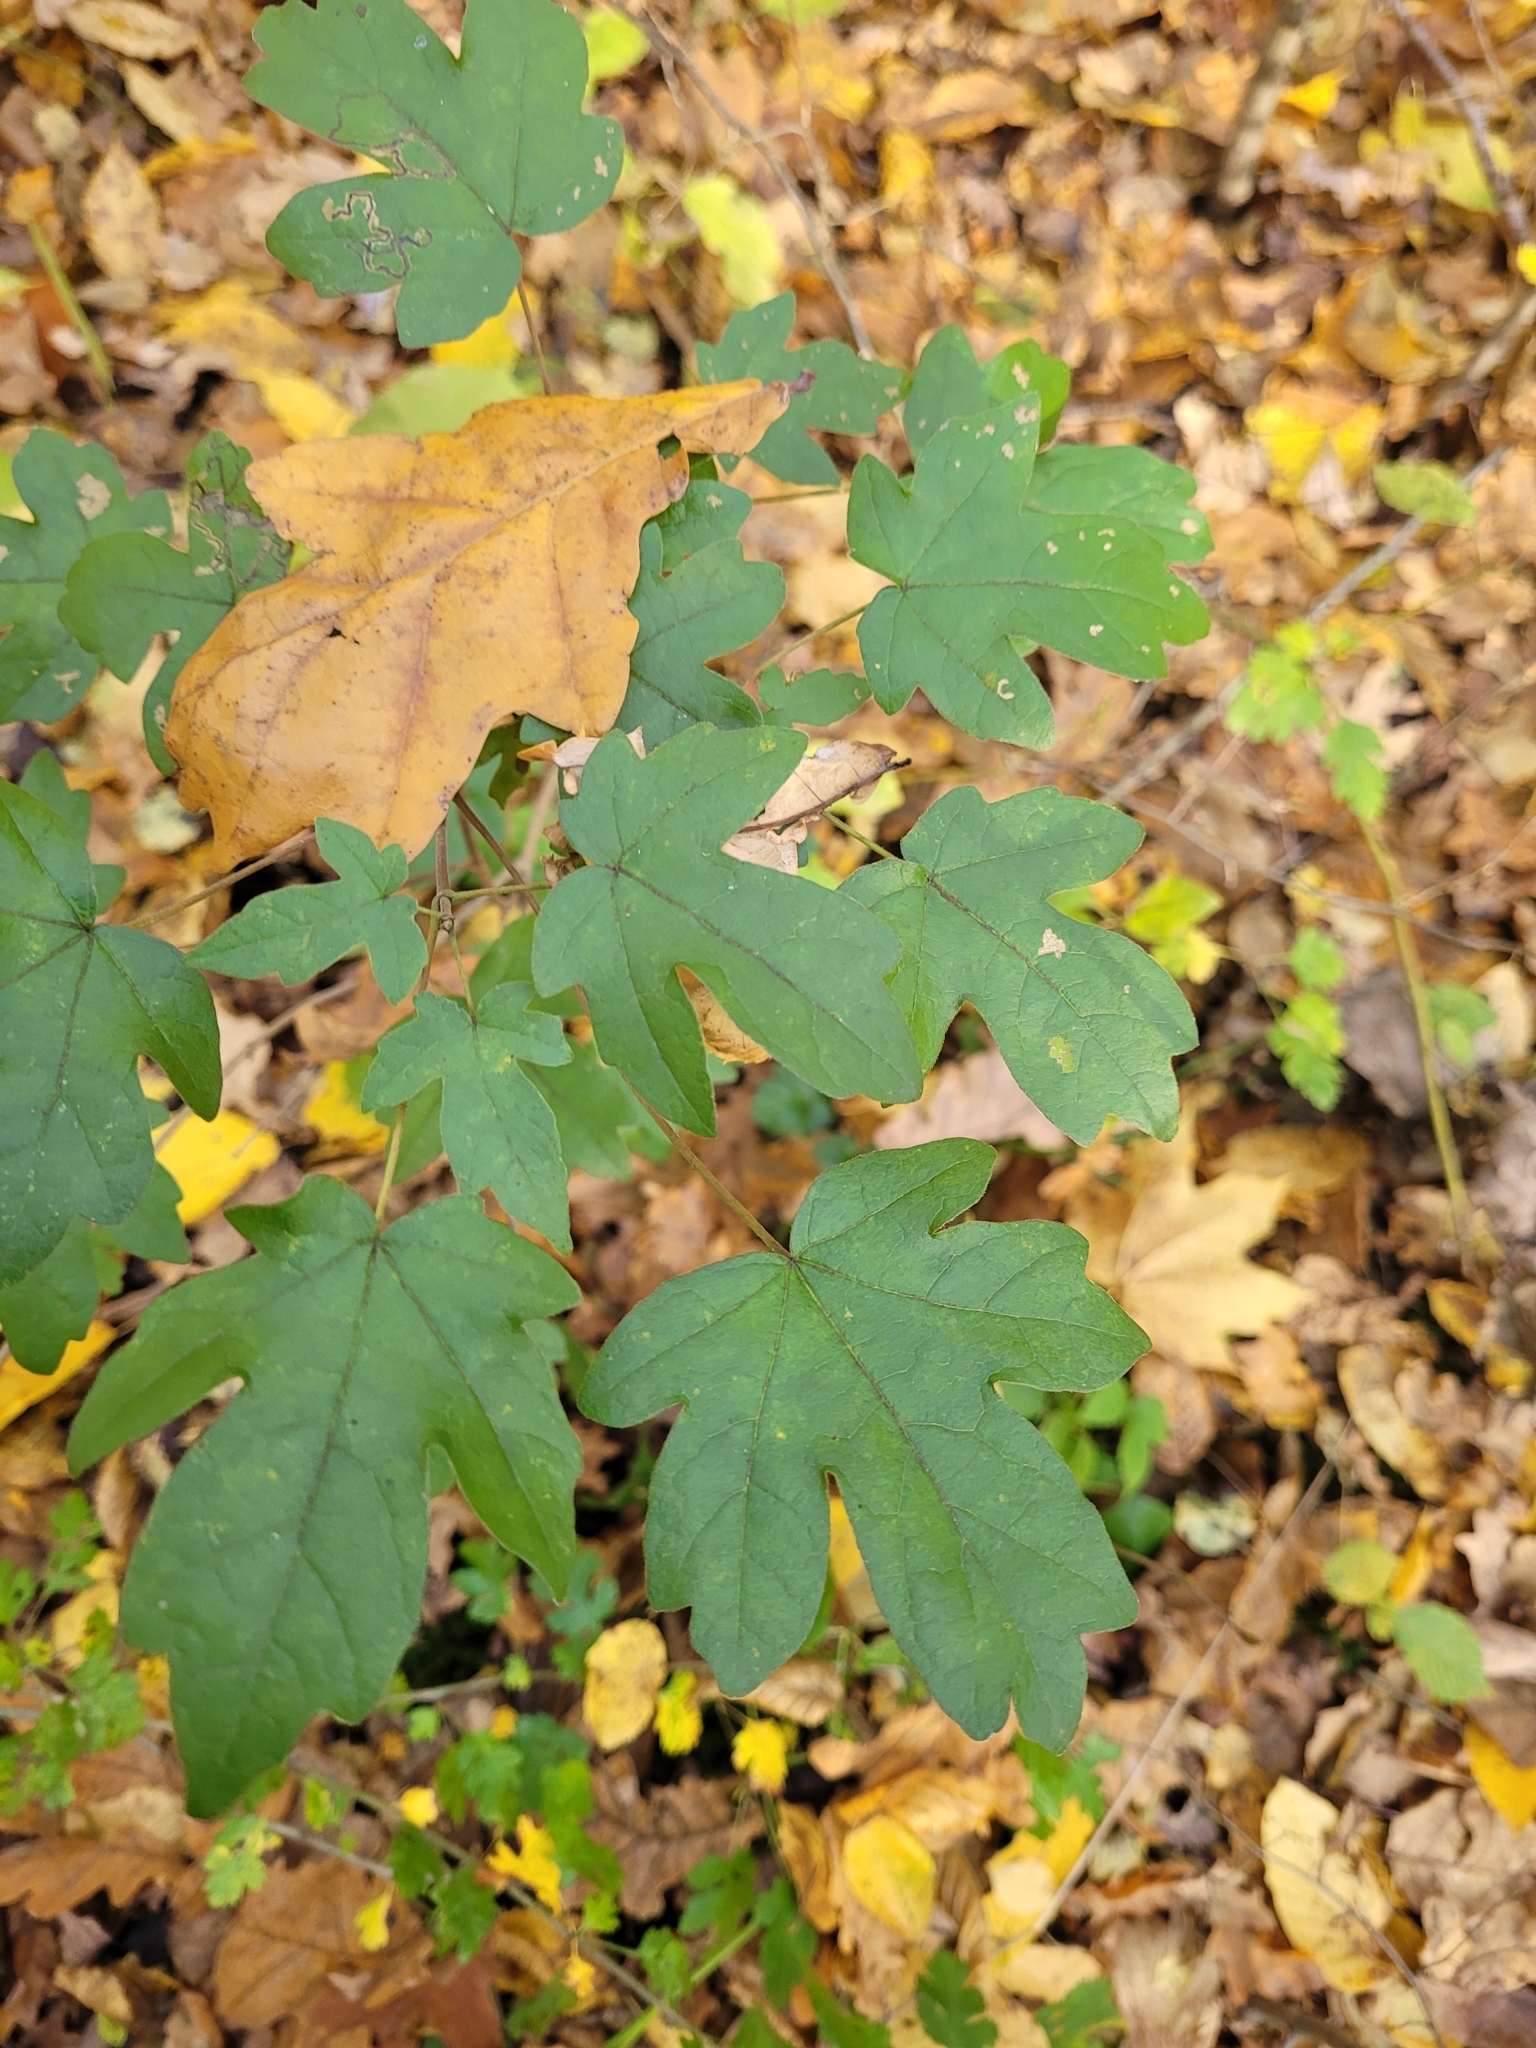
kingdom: Plantae
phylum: Tracheophyta
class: Magnoliopsida
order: Sapindales
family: Sapindaceae
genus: Acer
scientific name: Acer campestre
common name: Field maple
